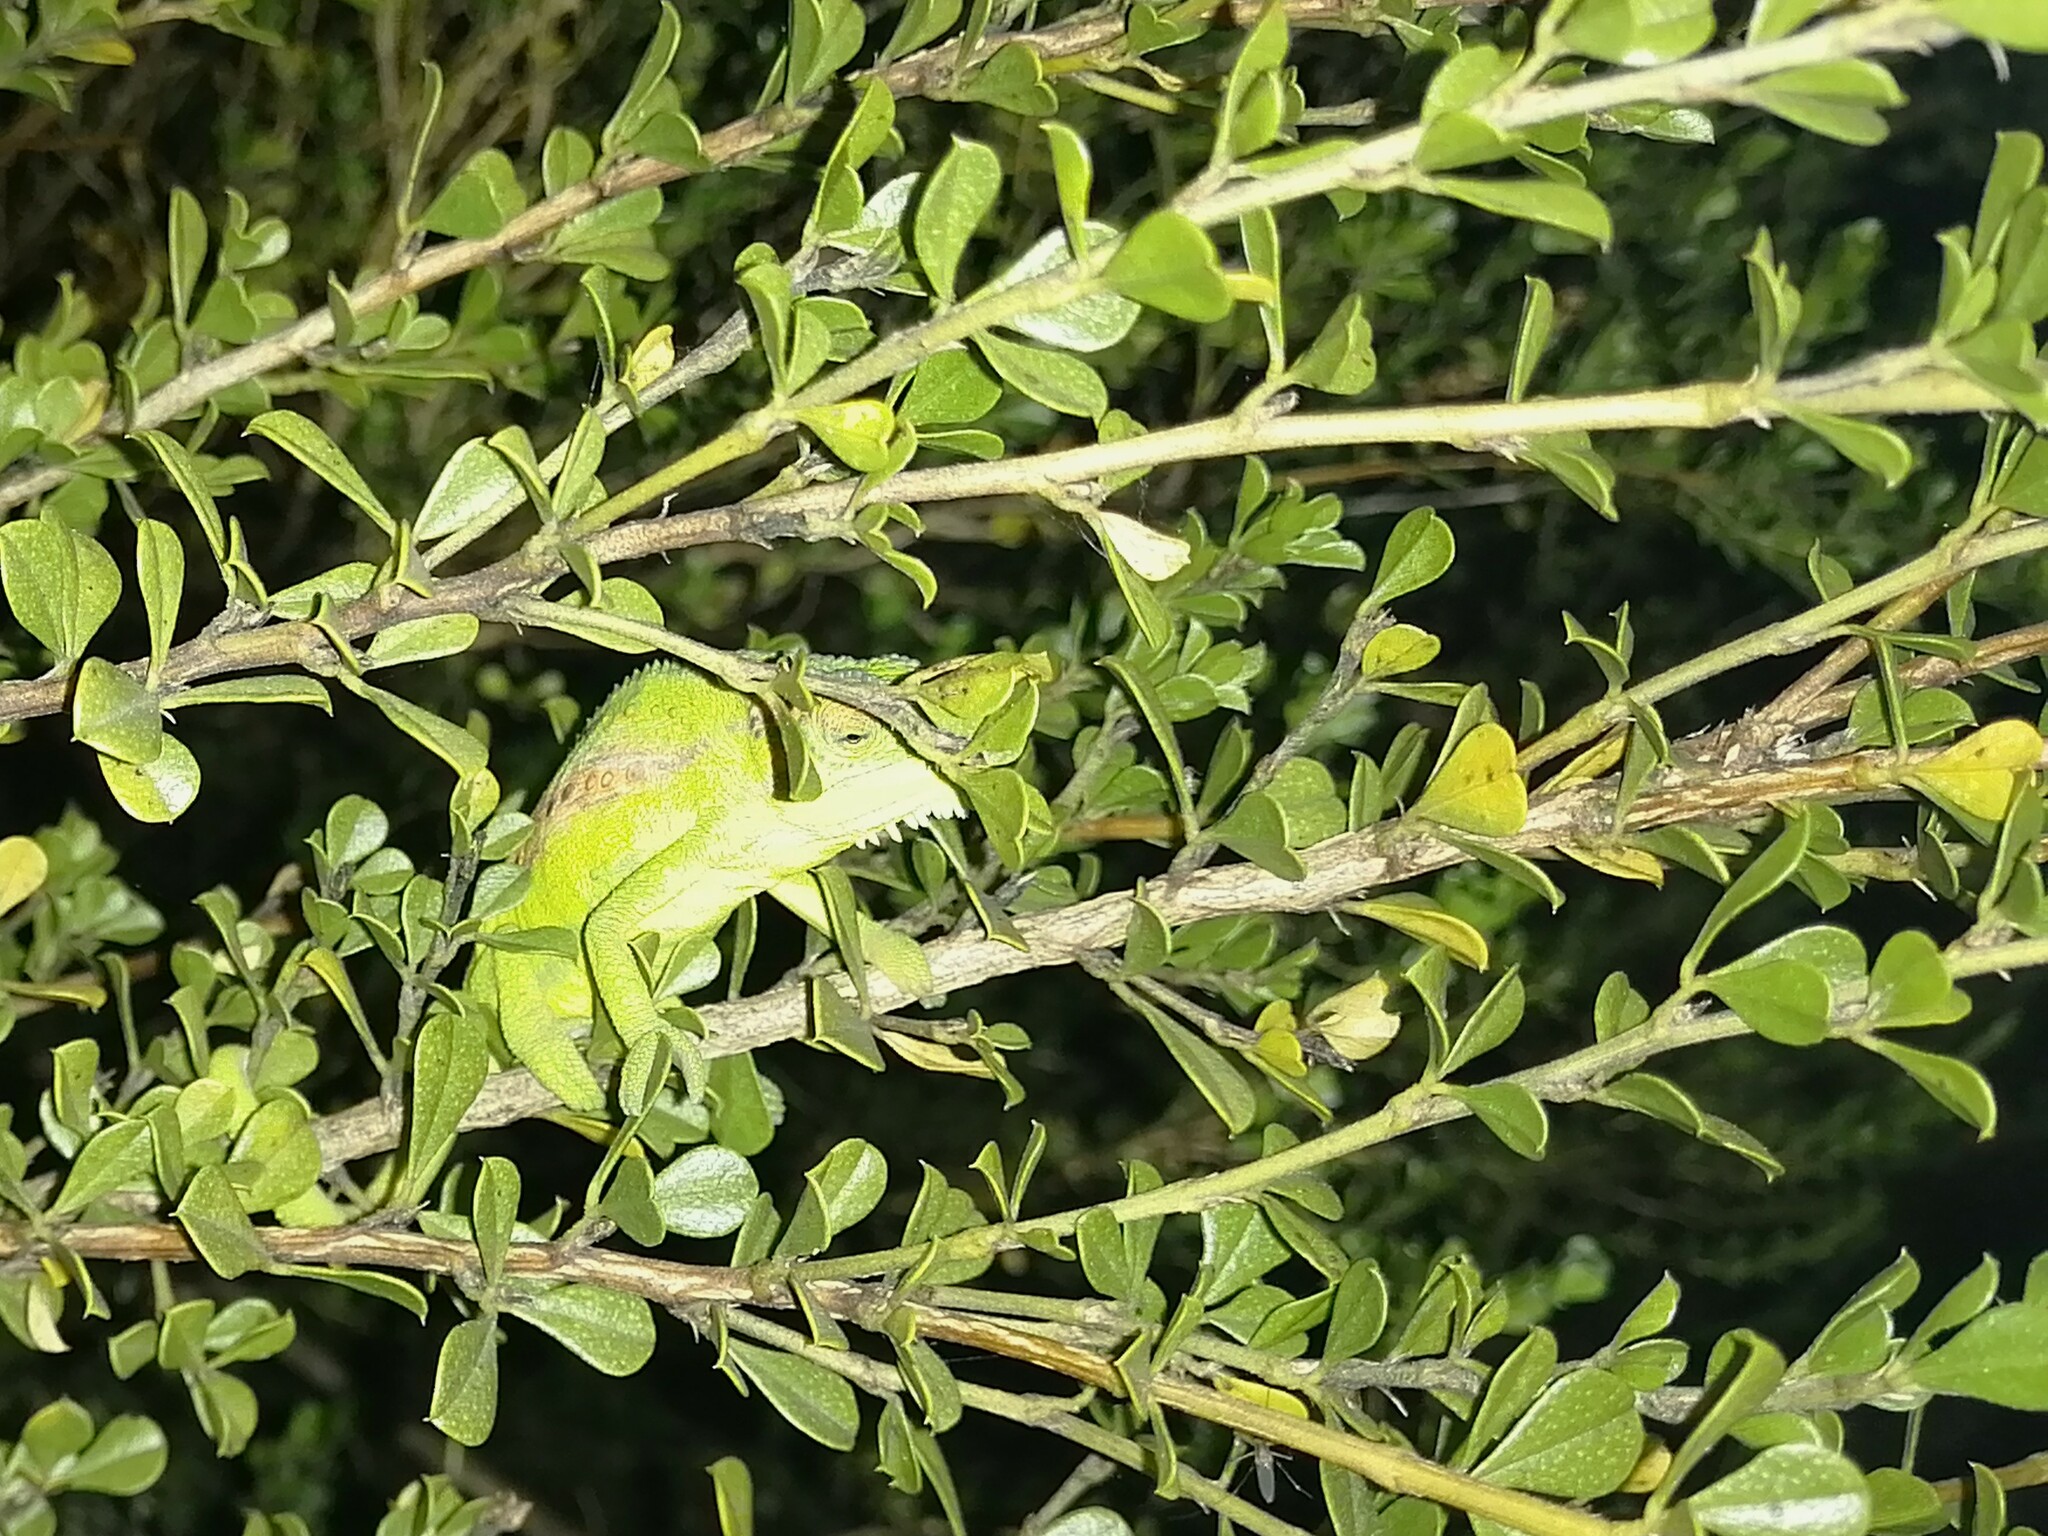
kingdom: Animalia
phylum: Chordata
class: Squamata
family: Chamaeleonidae
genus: Bradypodion
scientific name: Bradypodion pumilum
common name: Cape dwarf chameleon
